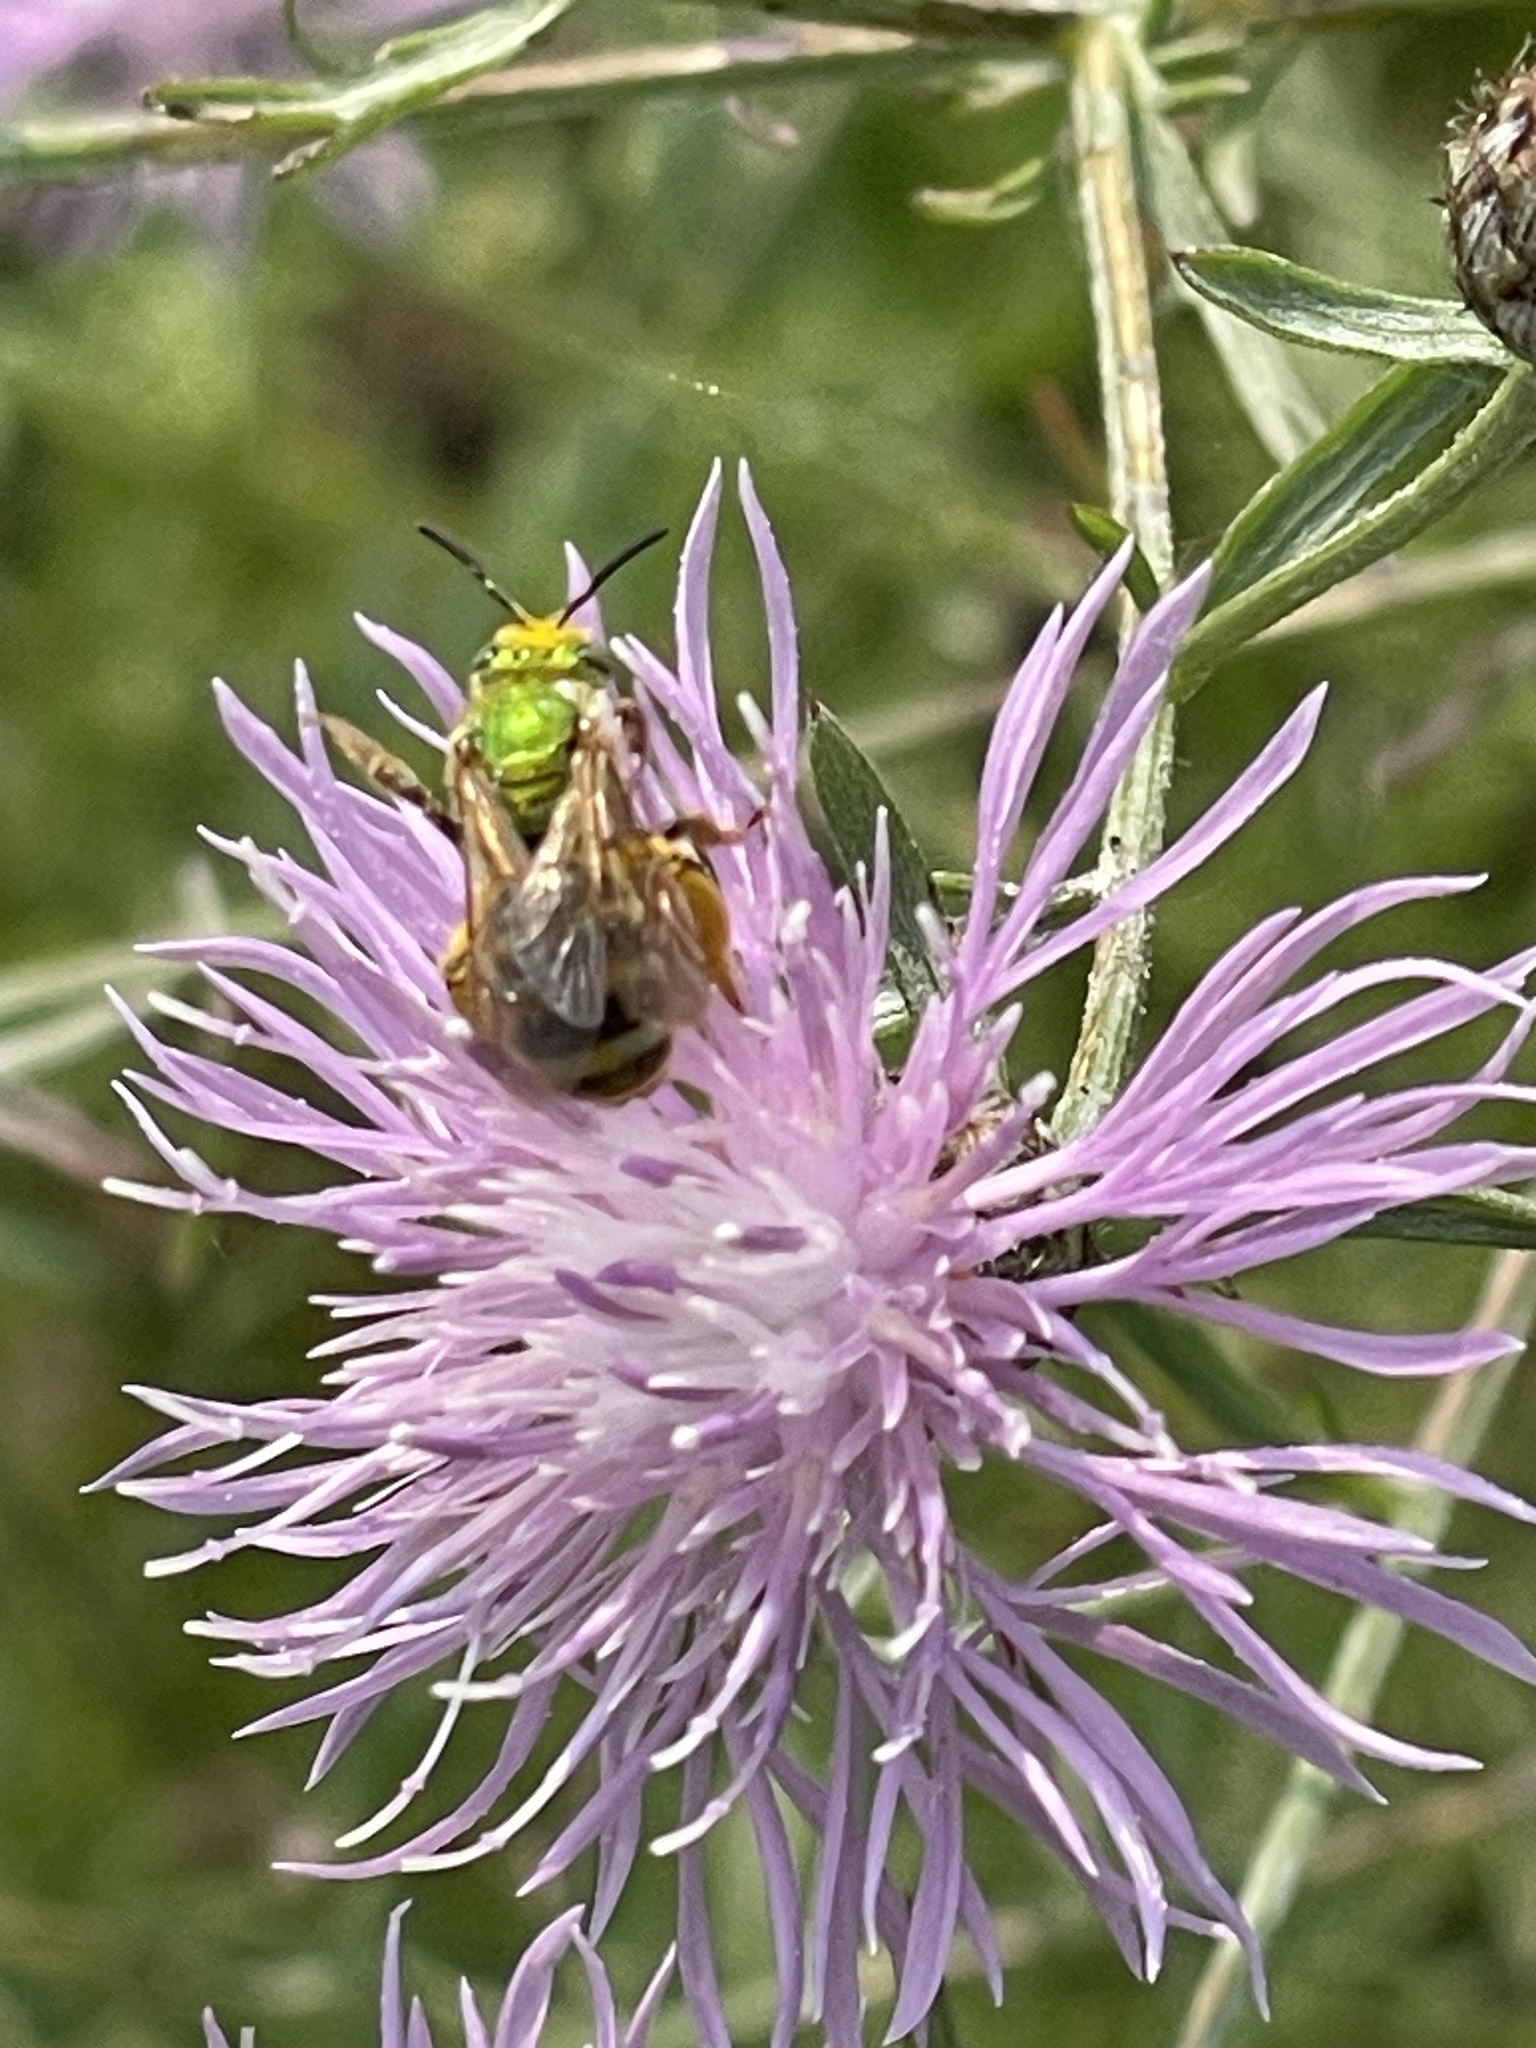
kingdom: Animalia
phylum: Arthropoda
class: Insecta
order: Hymenoptera
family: Halictidae
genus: Agapostemon
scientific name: Agapostemon virescens
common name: Bicolored striped sweat bee
